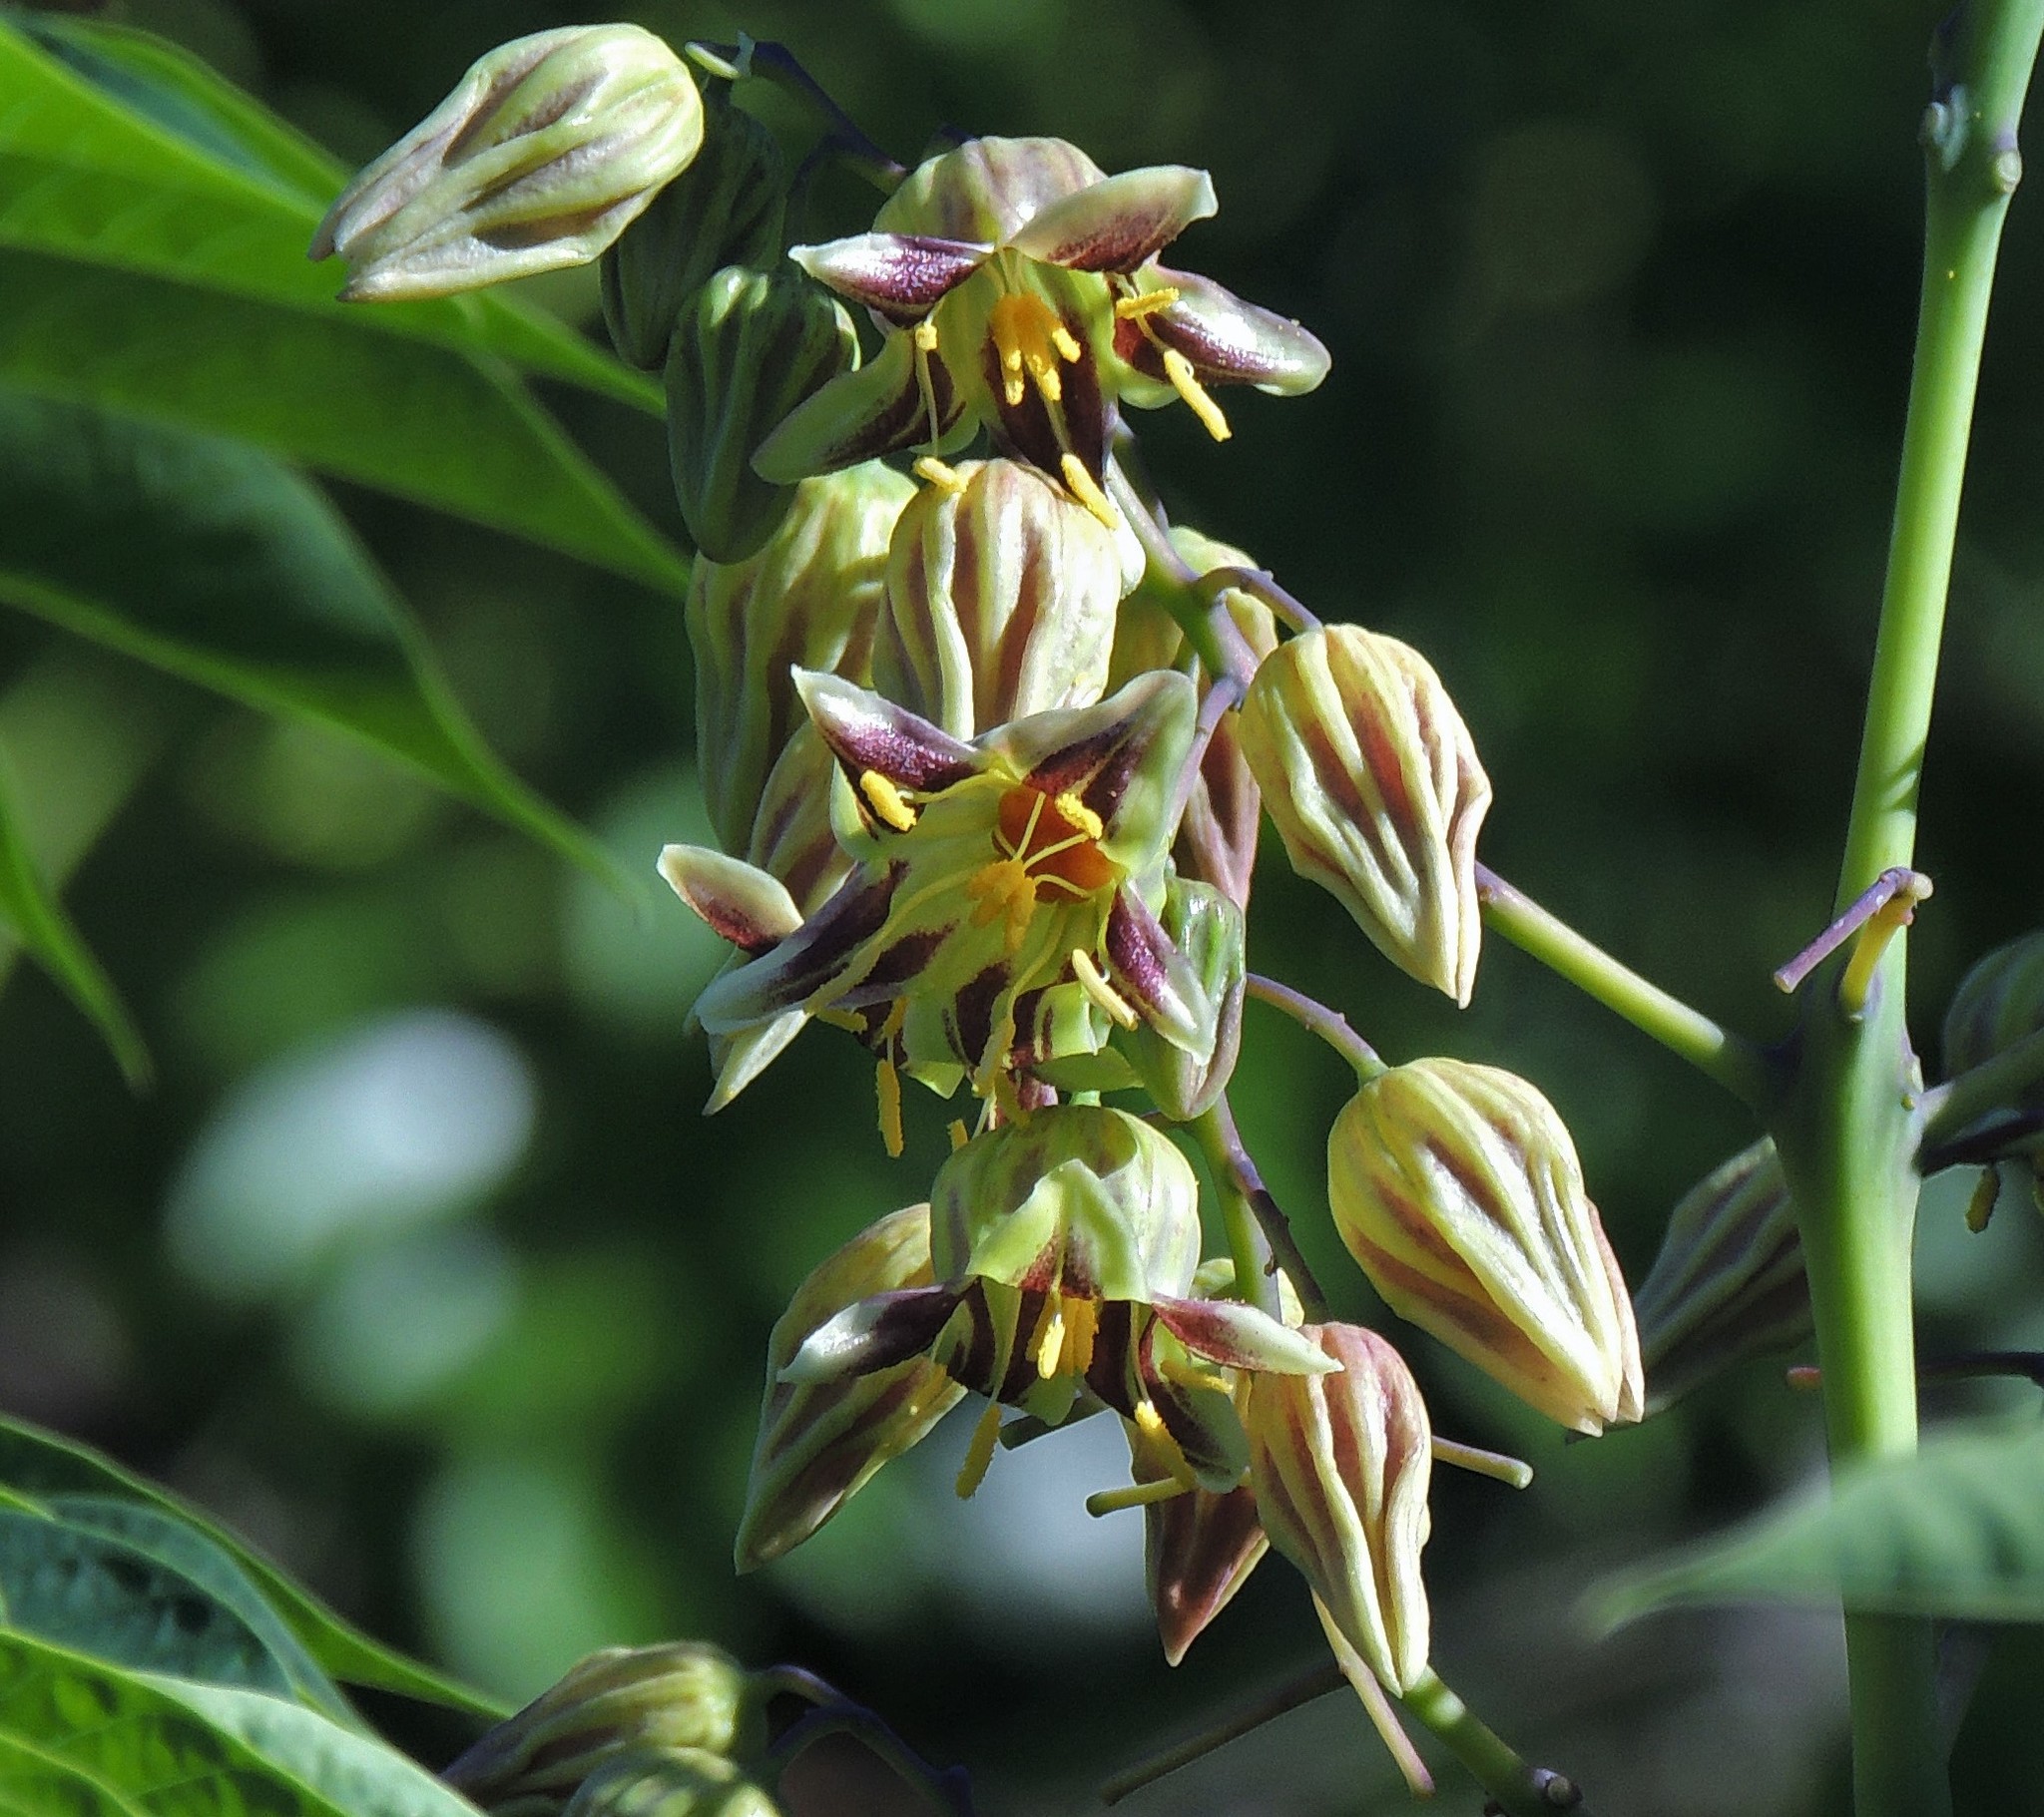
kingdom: Plantae
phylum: Tracheophyta
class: Magnoliopsida
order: Malpighiales
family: Euphorbiaceae
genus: Manihot
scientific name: Manihot grahamii
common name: Graham's manihot
